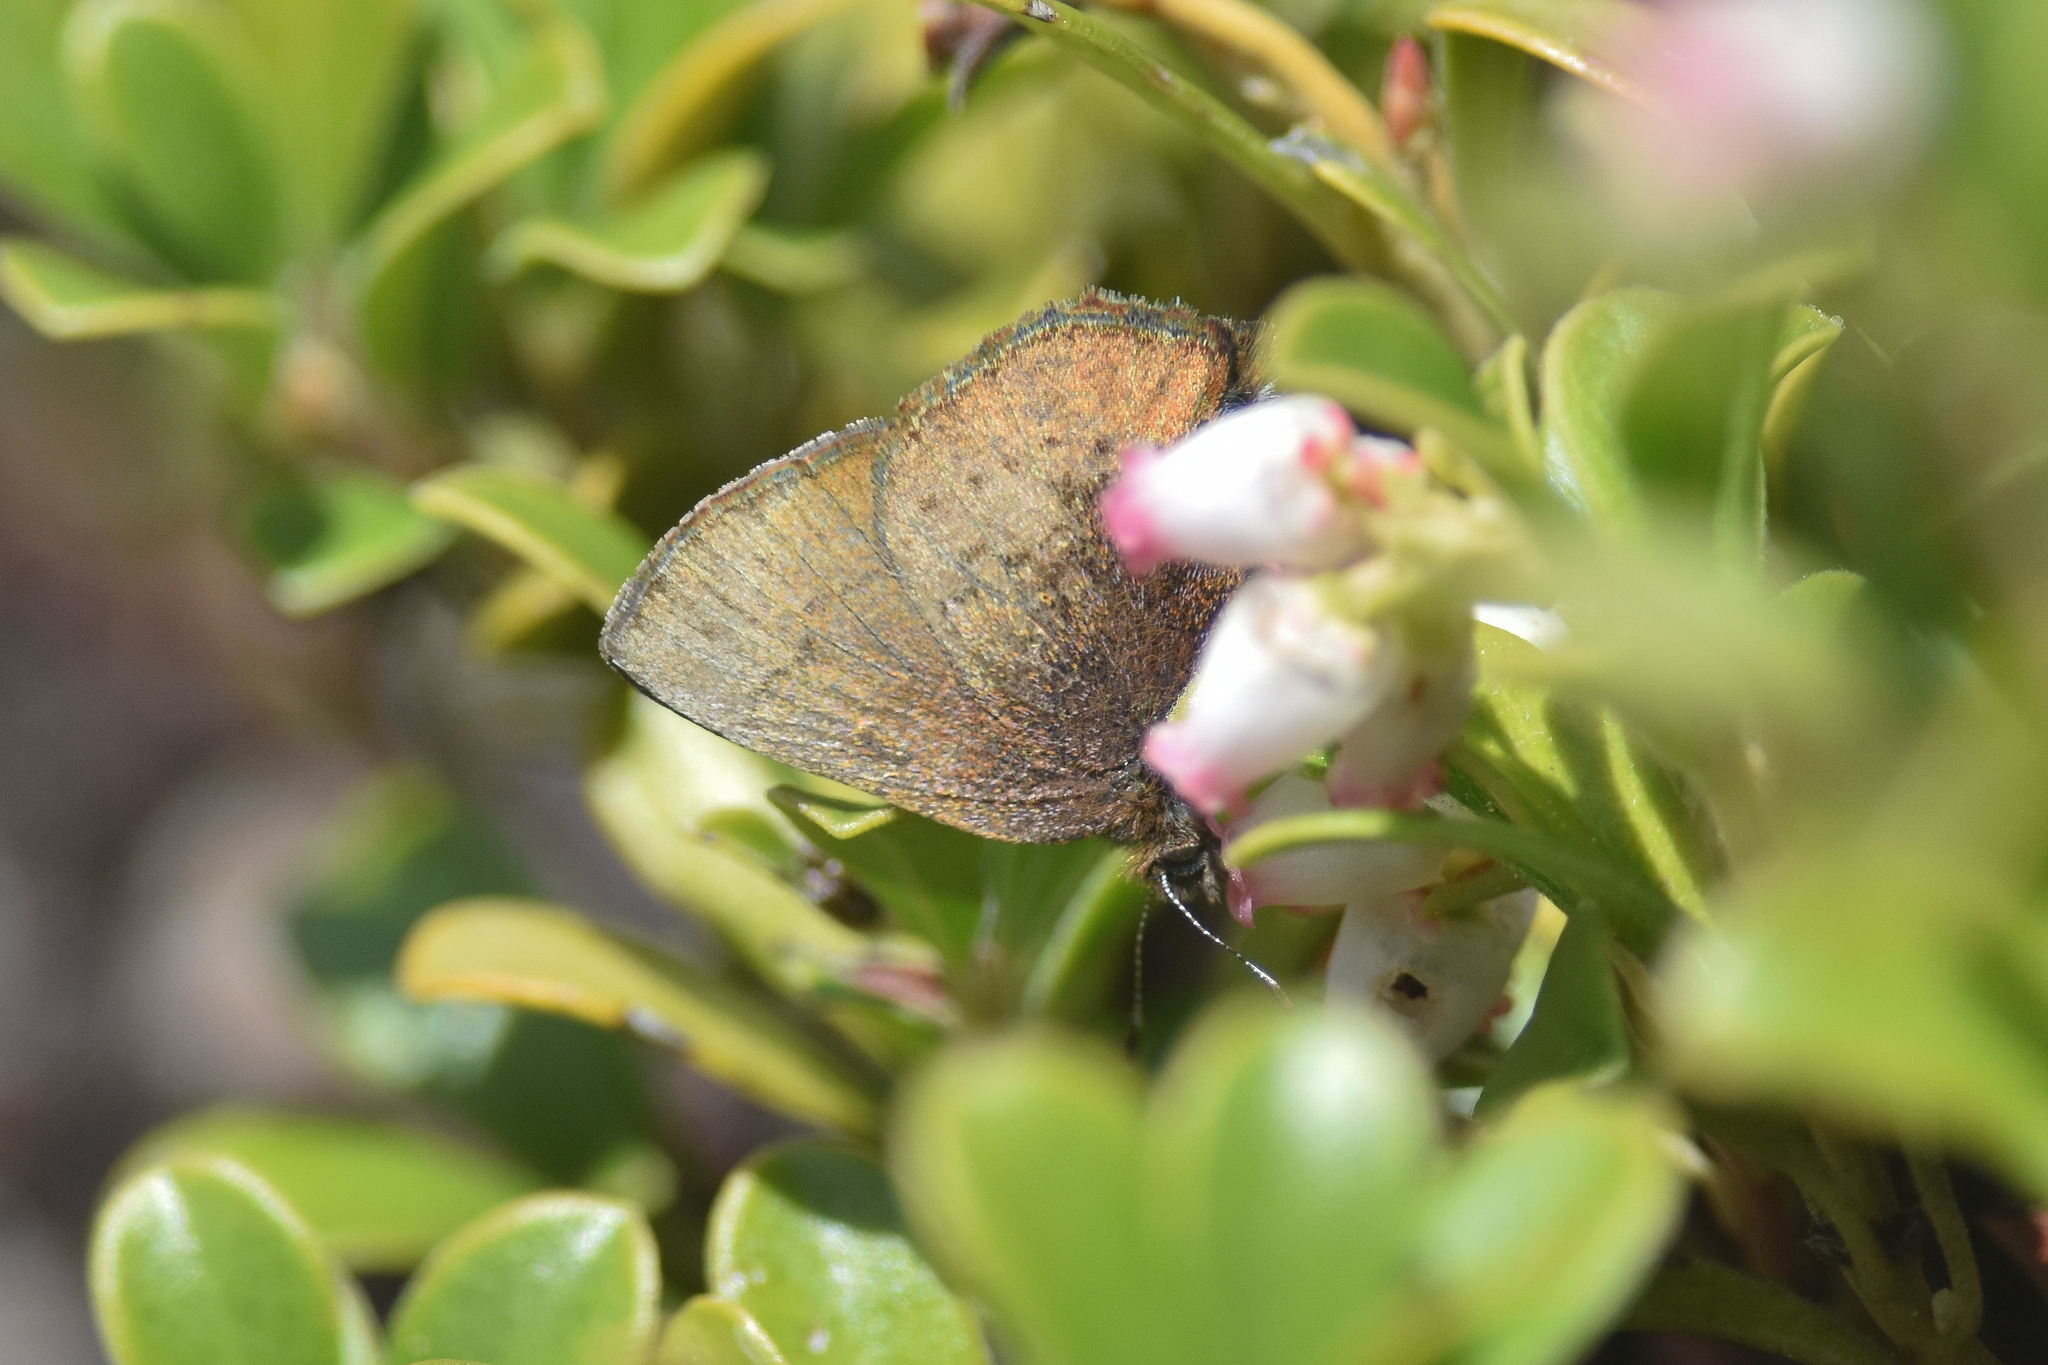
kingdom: Animalia
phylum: Arthropoda
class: Insecta
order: Lepidoptera
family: Lycaenidae
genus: Incisalia
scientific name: Incisalia irioides
